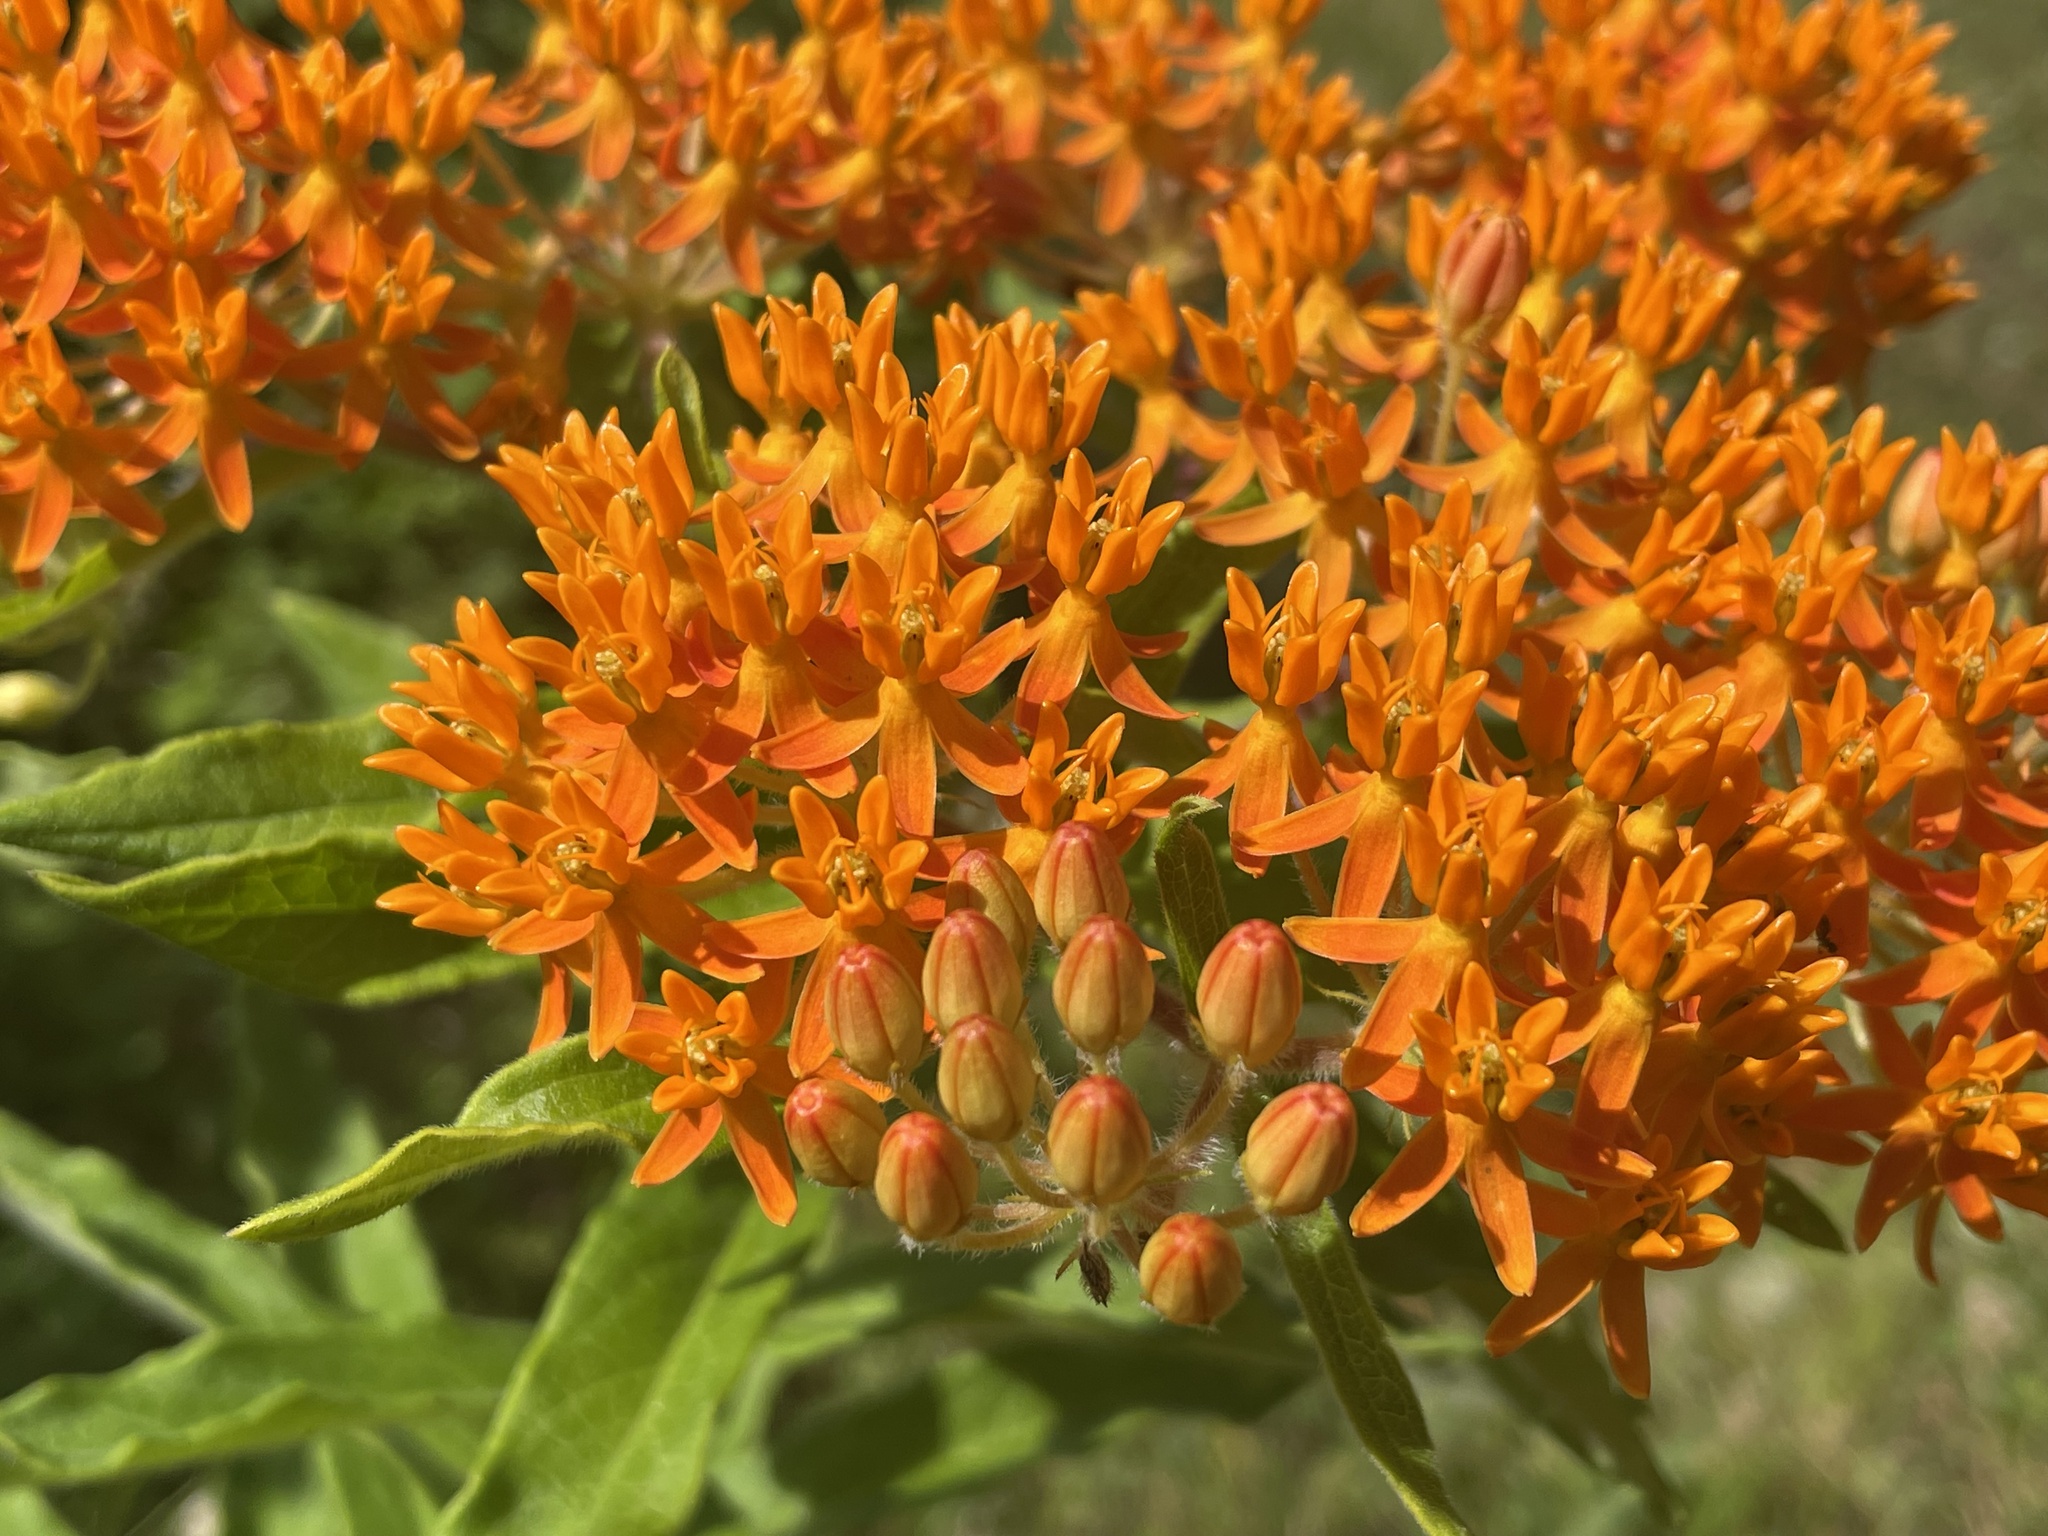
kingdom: Plantae
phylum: Tracheophyta
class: Magnoliopsida
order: Gentianales
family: Apocynaceae
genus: Asclepias
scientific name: Asclepias tuberosa
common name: Butterfly milkweed
